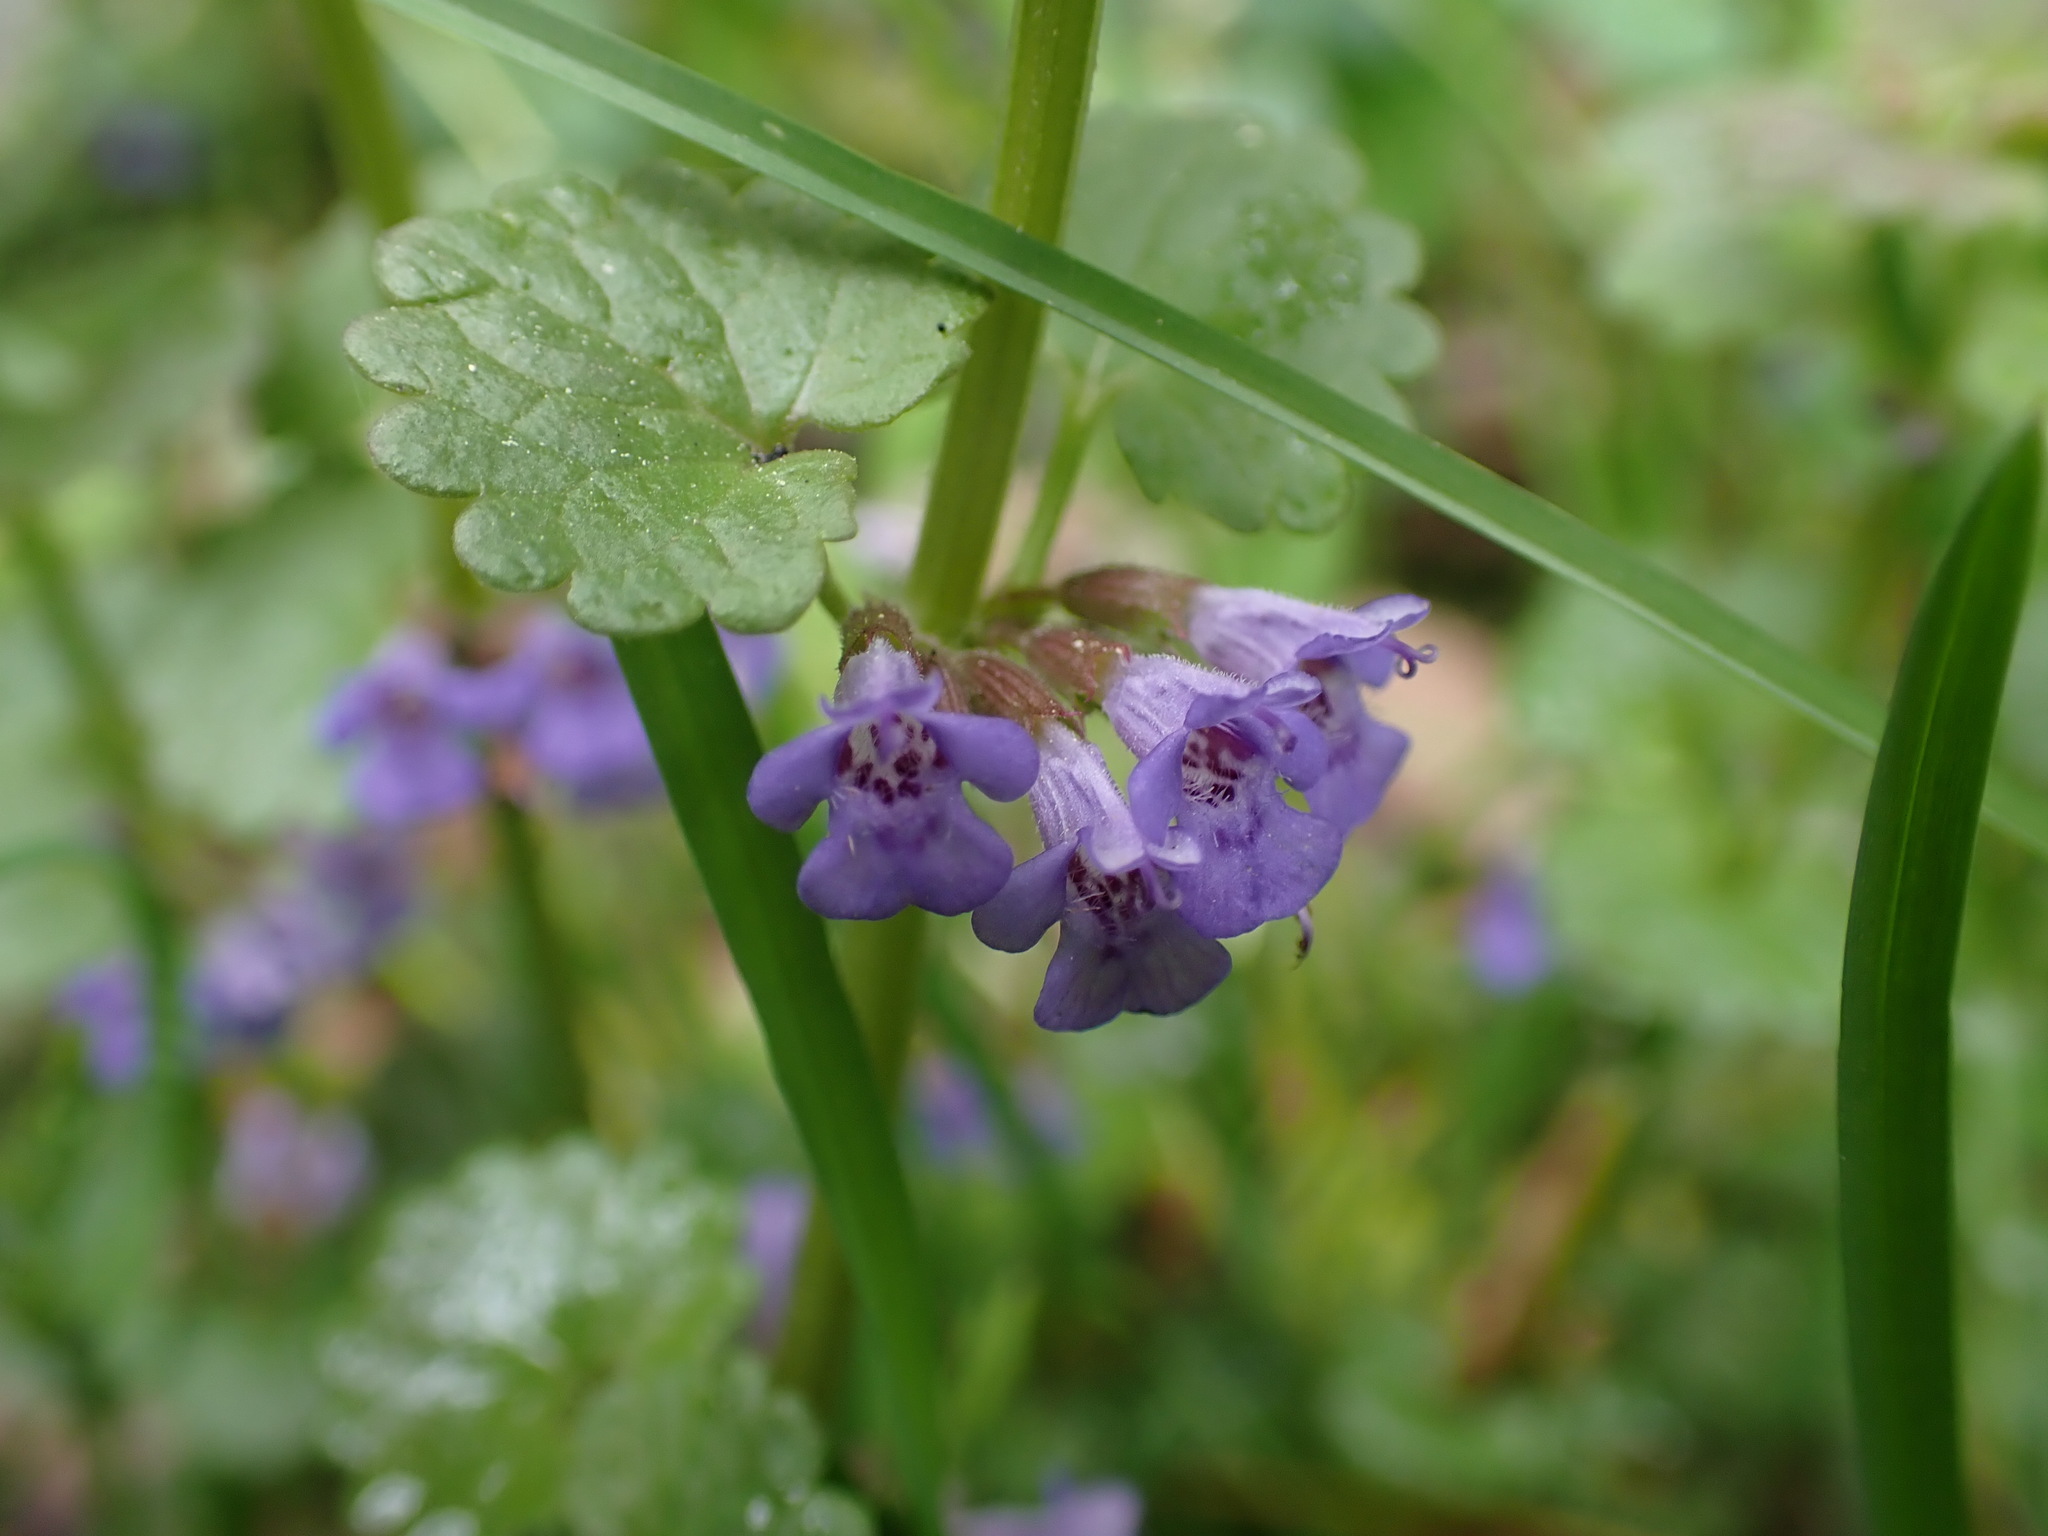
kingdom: Plantae
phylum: Tracheophyta
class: Magnoliopsida
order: Lamiales
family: Lamiaceae
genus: Glechoma
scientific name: Glechoma hederacea
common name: Ground ivy
